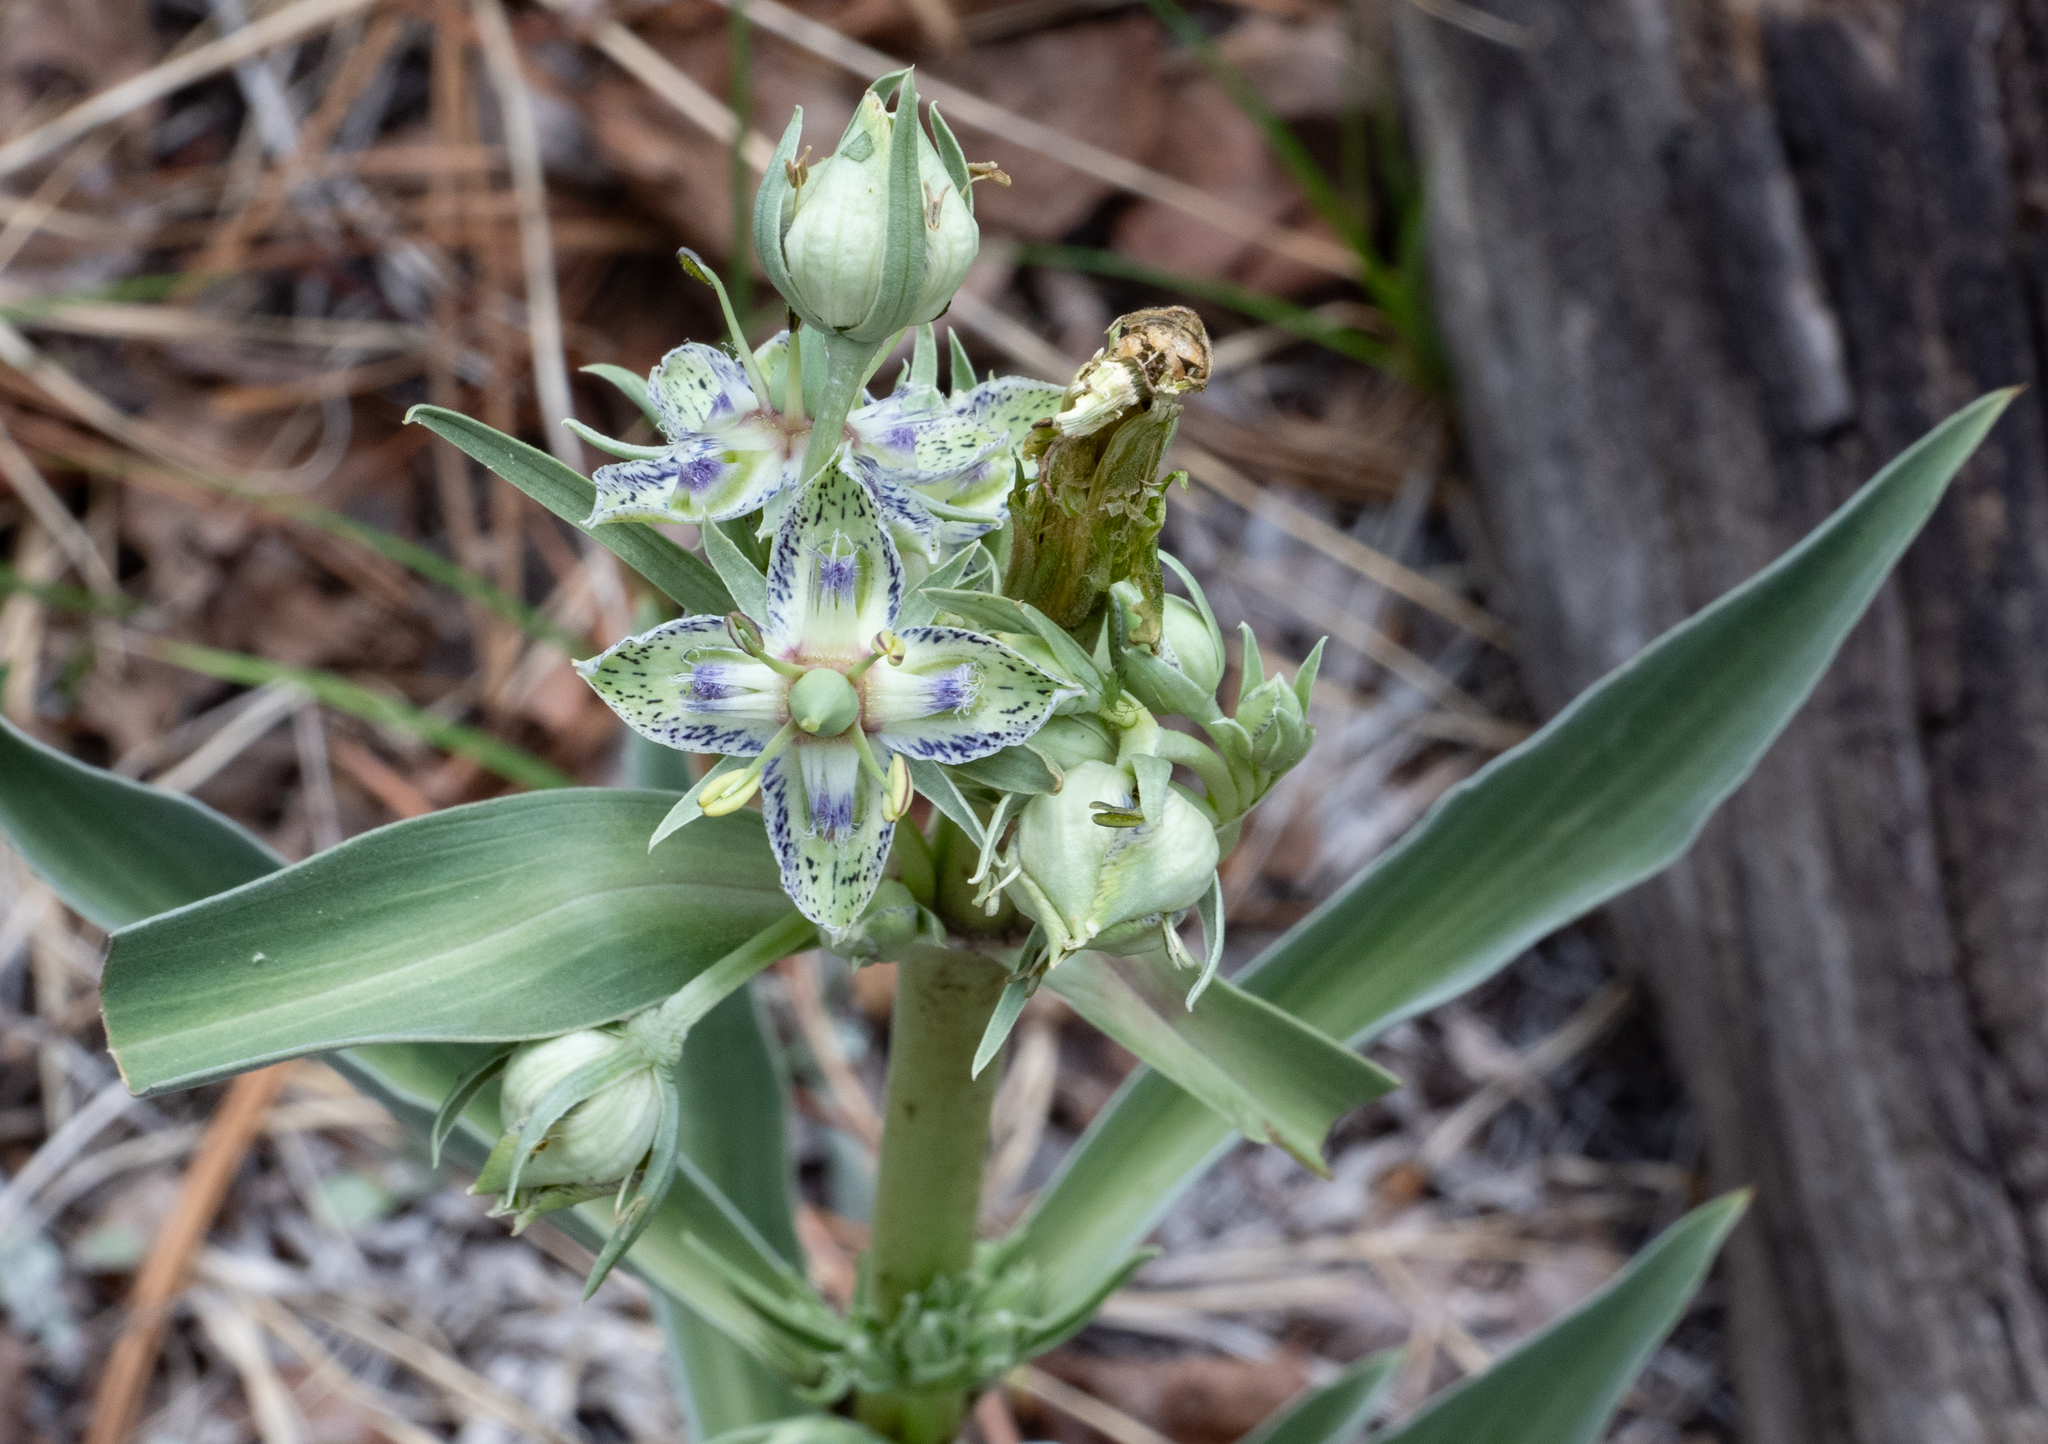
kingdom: Plantae
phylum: Tracheophyta
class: Magnoliopsida
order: Gentianales
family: Gentianaceae
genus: Frasera
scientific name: Frasera speciosa
